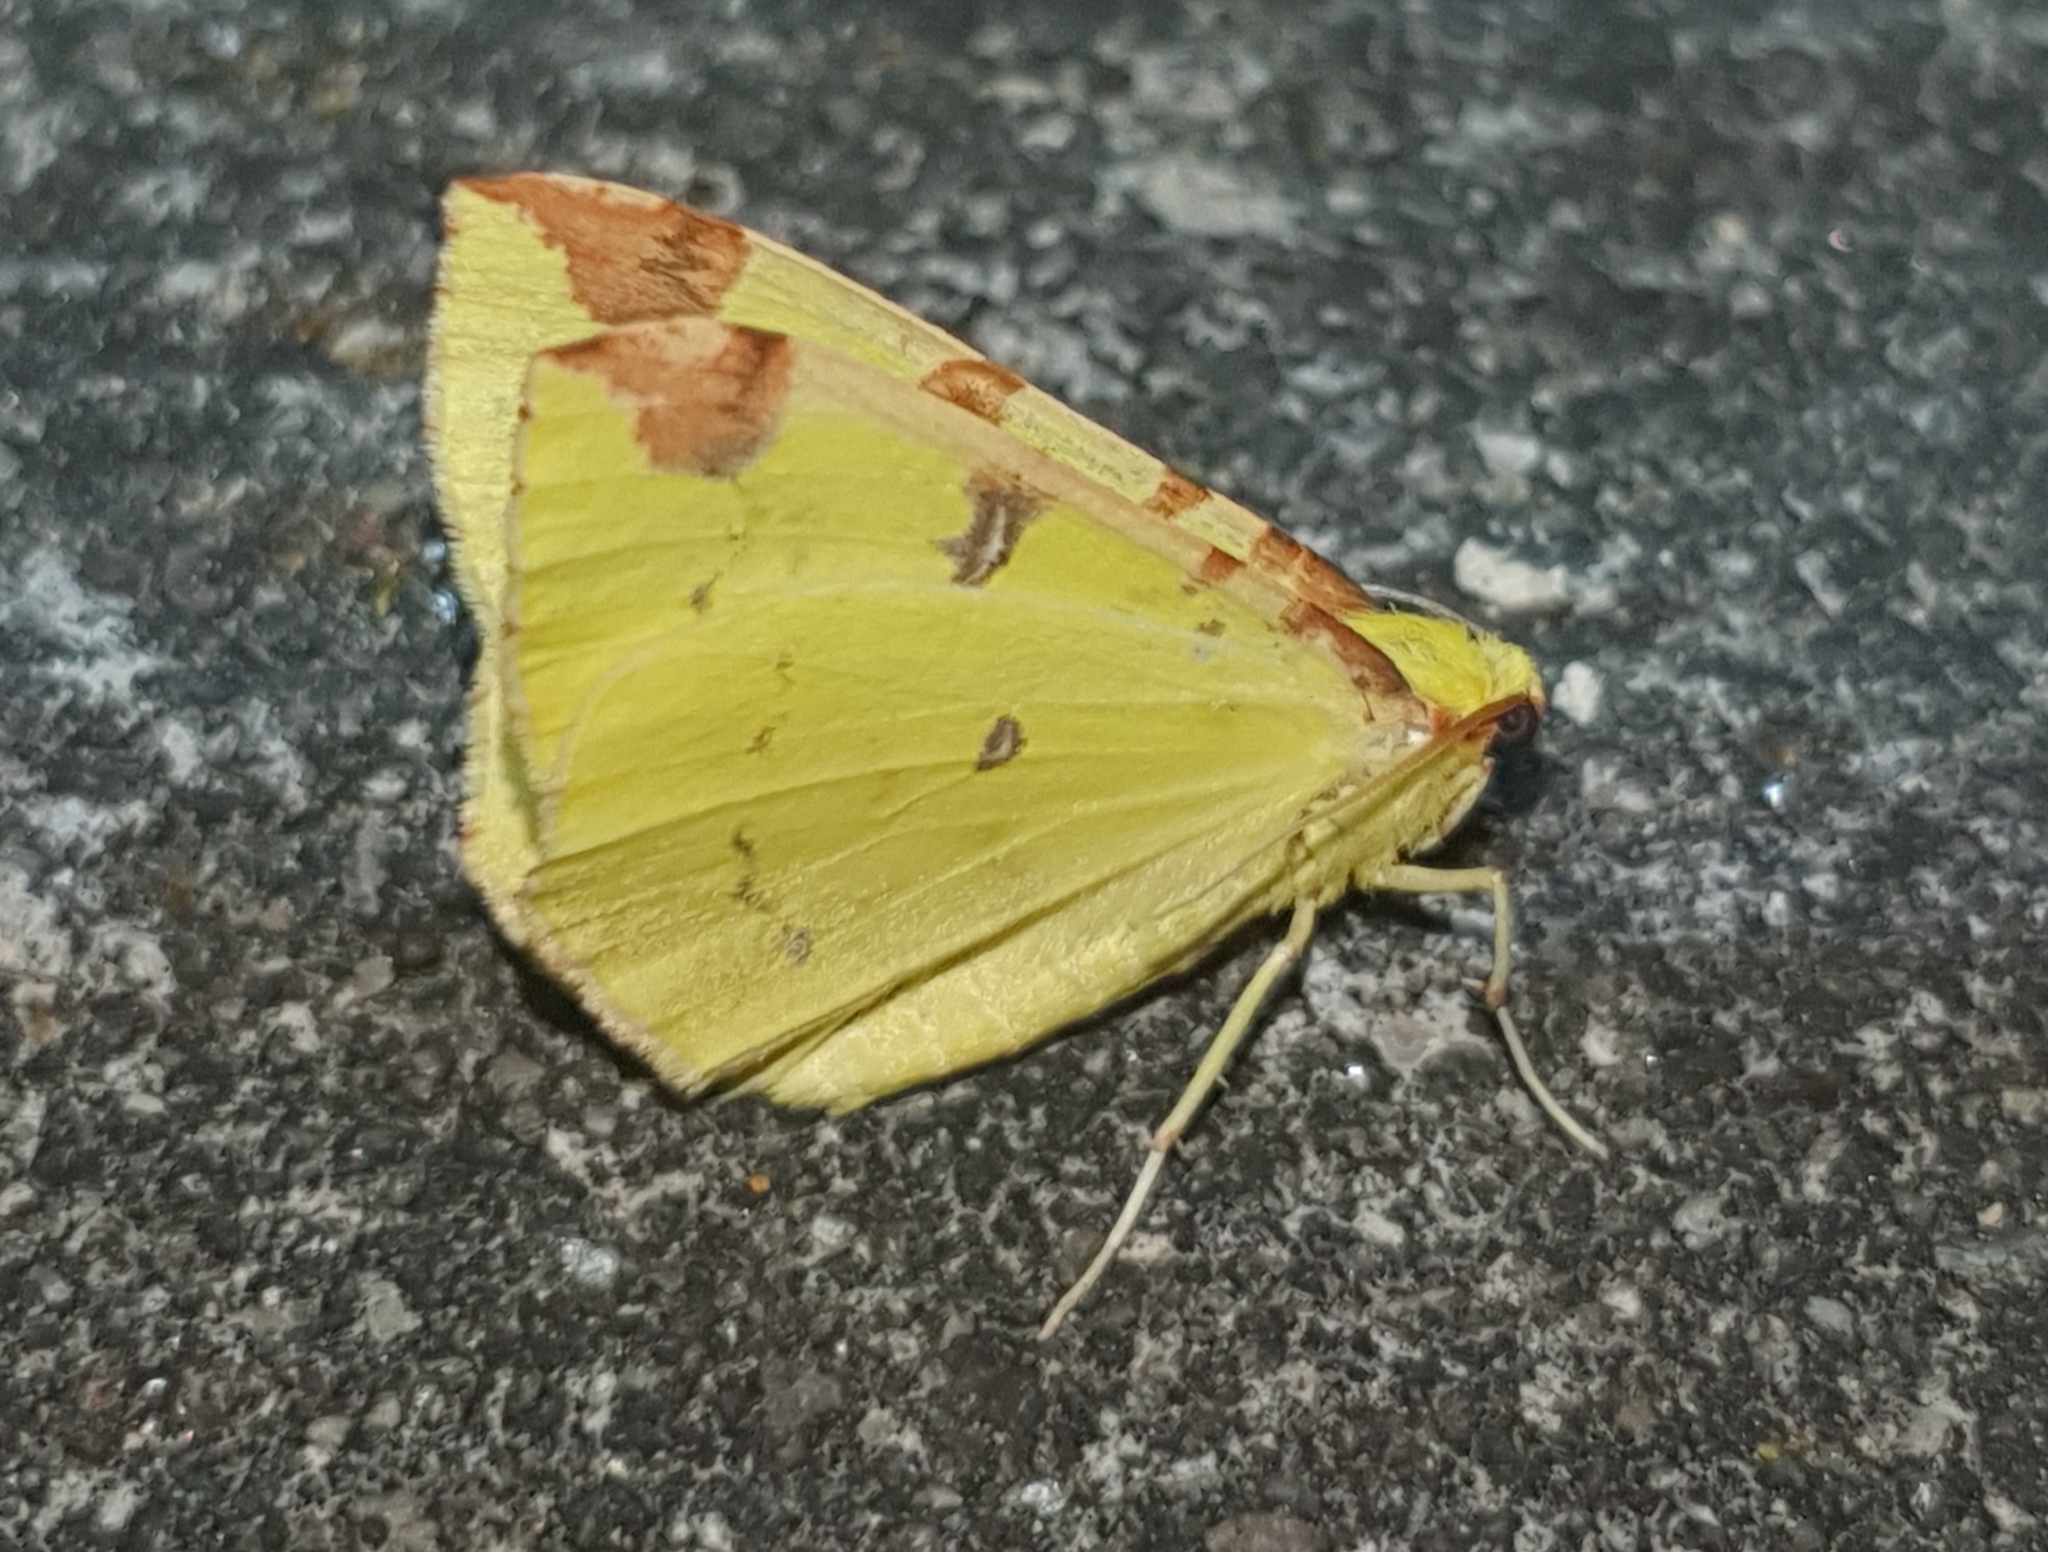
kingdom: Animalia
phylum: Arthropoda
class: Insecta
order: Lepidoptera
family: Geometridae
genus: Opisthograptis
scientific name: Opisthograptis luteolata
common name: Brimstone moth
